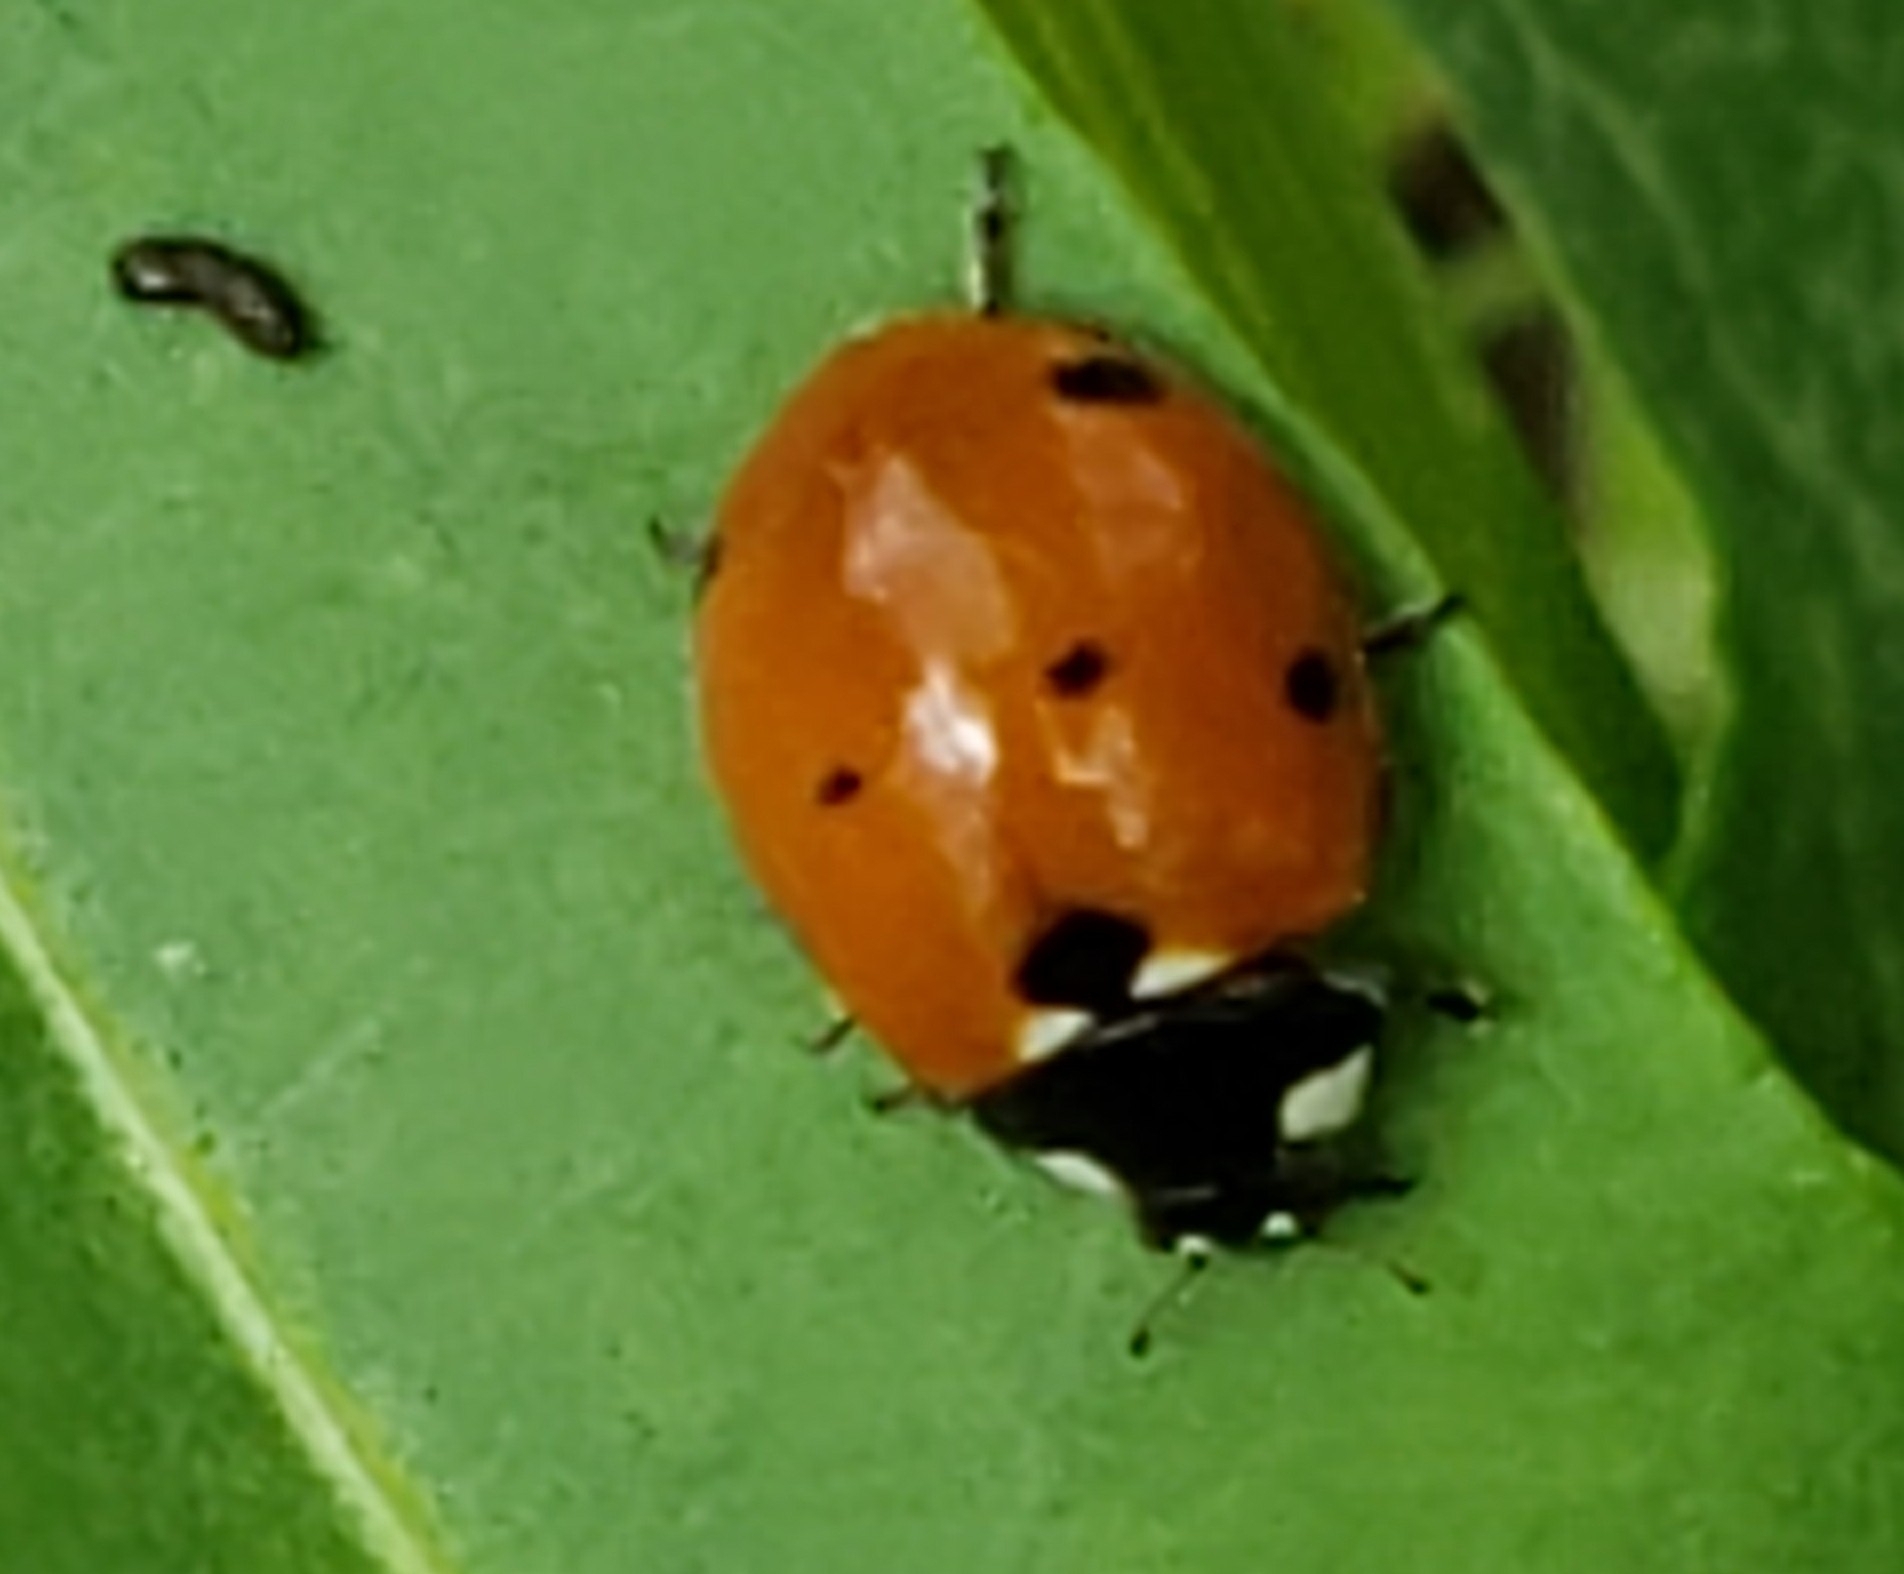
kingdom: Animalia
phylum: Arthropoda
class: Insecta
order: Coleoptera
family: Coccinellidae
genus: Coccinella
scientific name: Coccinella septempunctata
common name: Sevenspotted lady beetle
